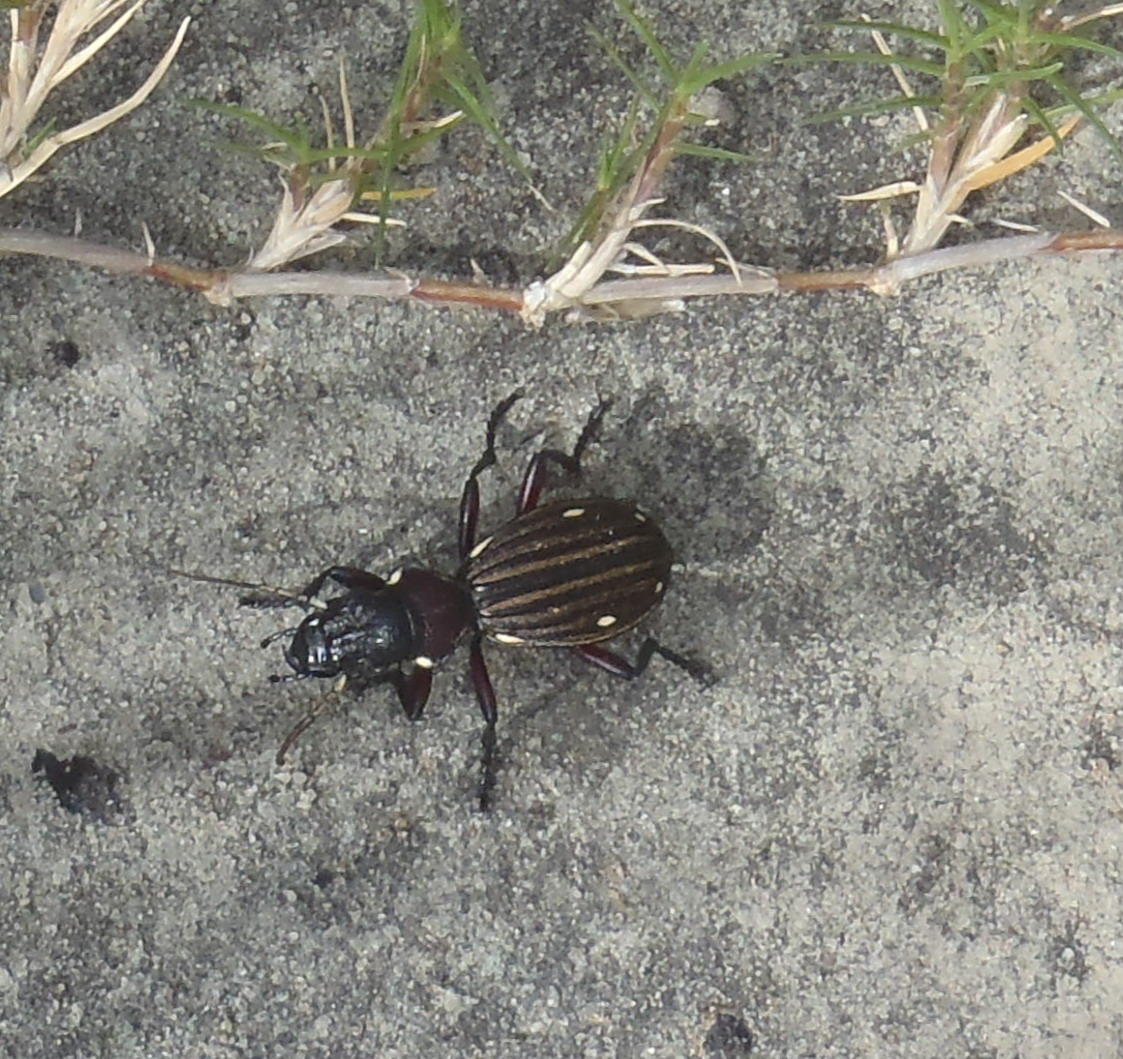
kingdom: Animalia
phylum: Arthropoda
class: Insecta
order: Coleoptera
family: Carabidae
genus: Anthia
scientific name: Anthia decemguttata
